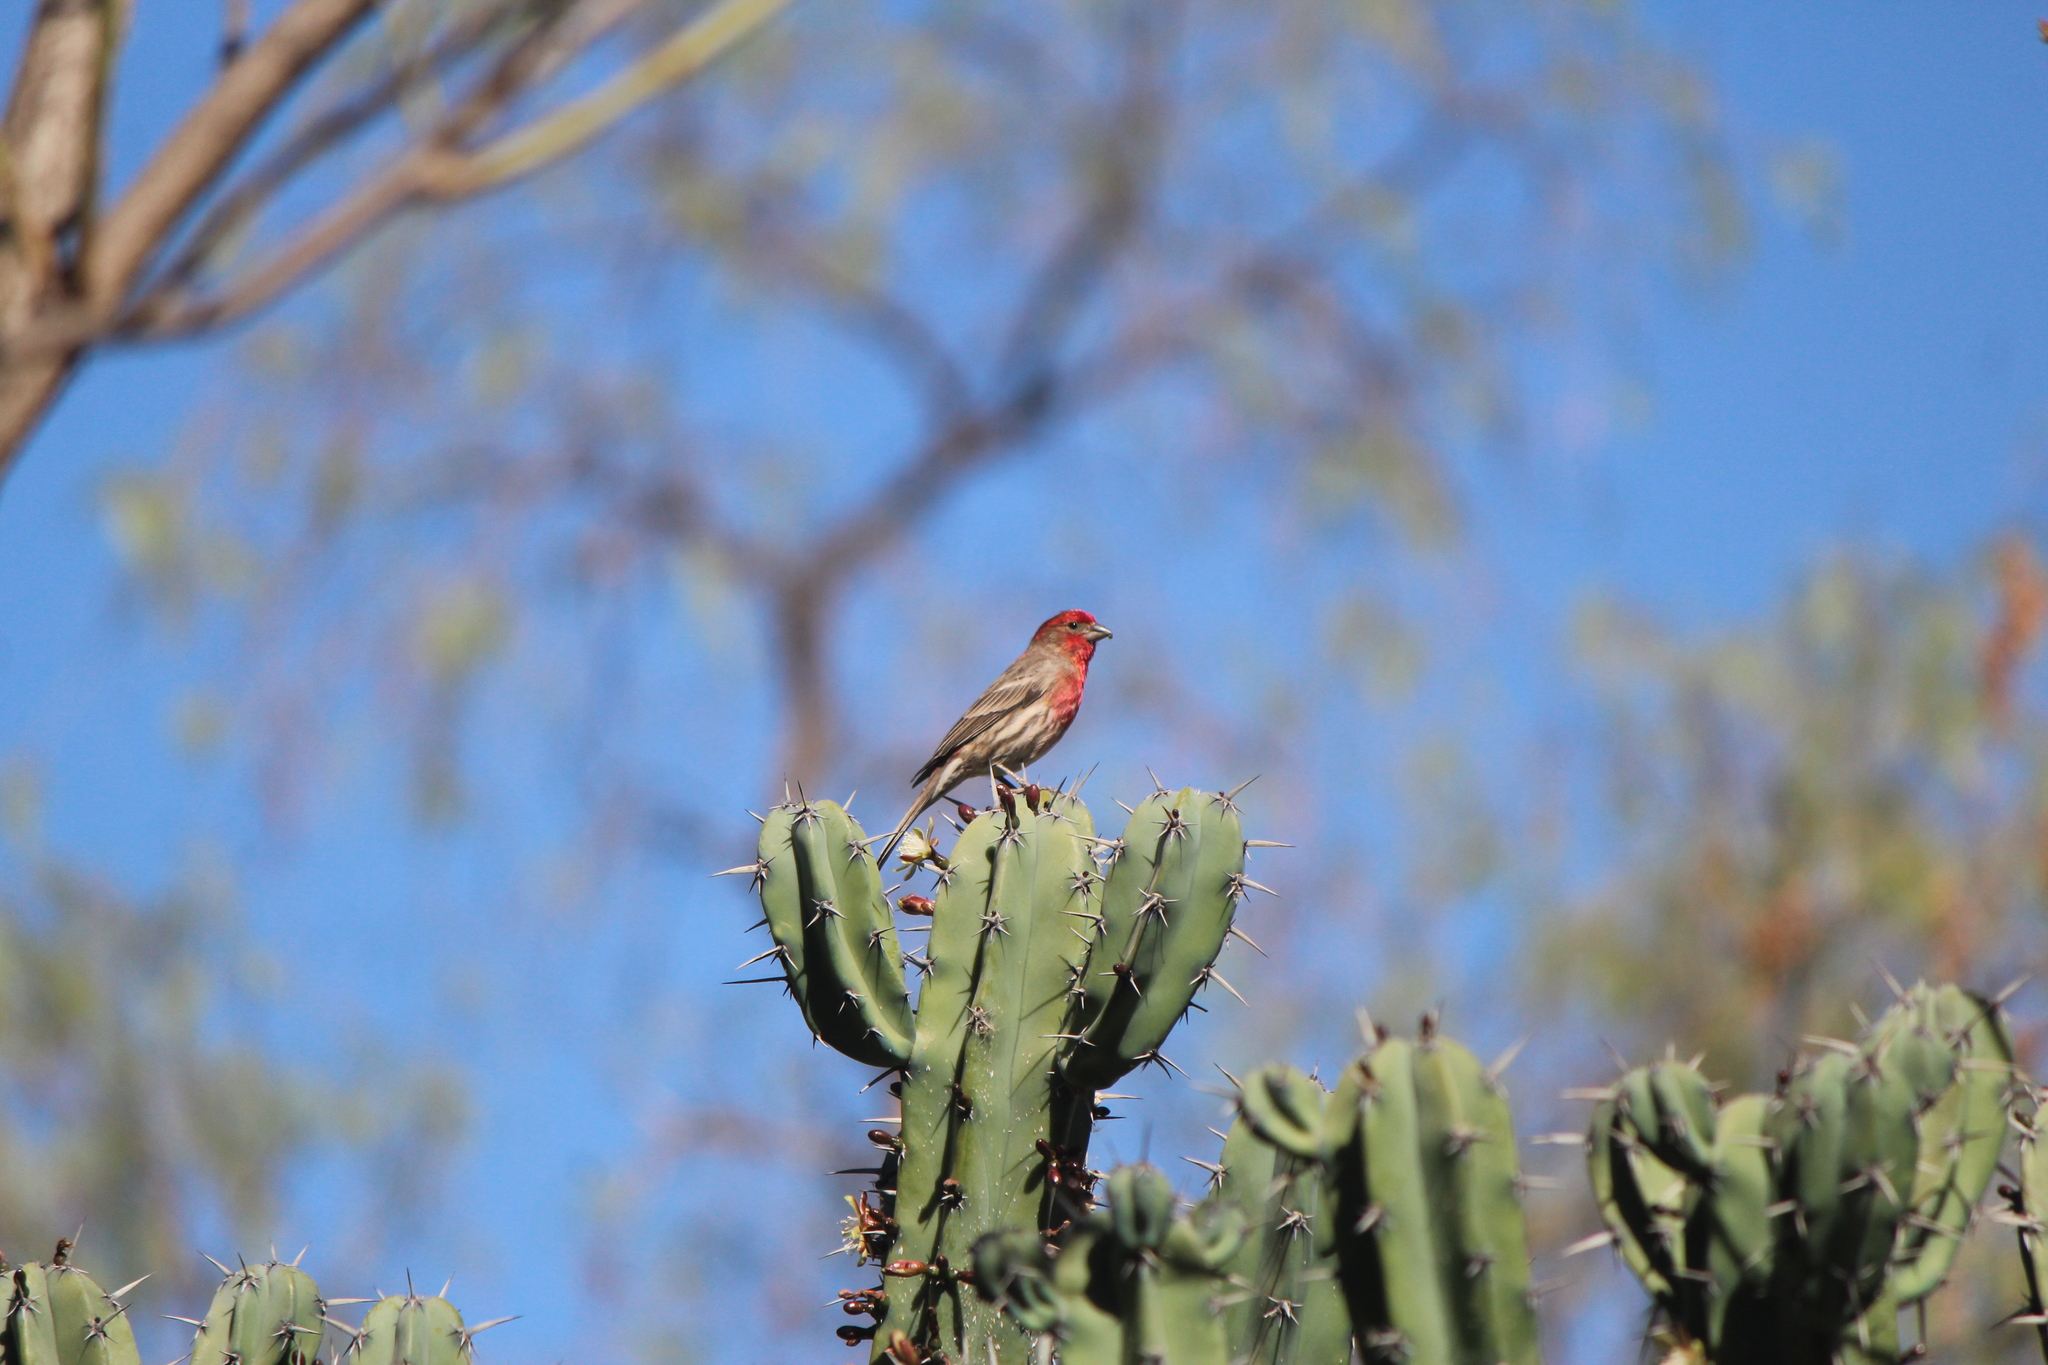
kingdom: Animalia
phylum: Chordata
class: Aves
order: Passeriformes
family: Fringillidae
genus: Haemorhous
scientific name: Haemorhous mexicanus
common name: House finch
